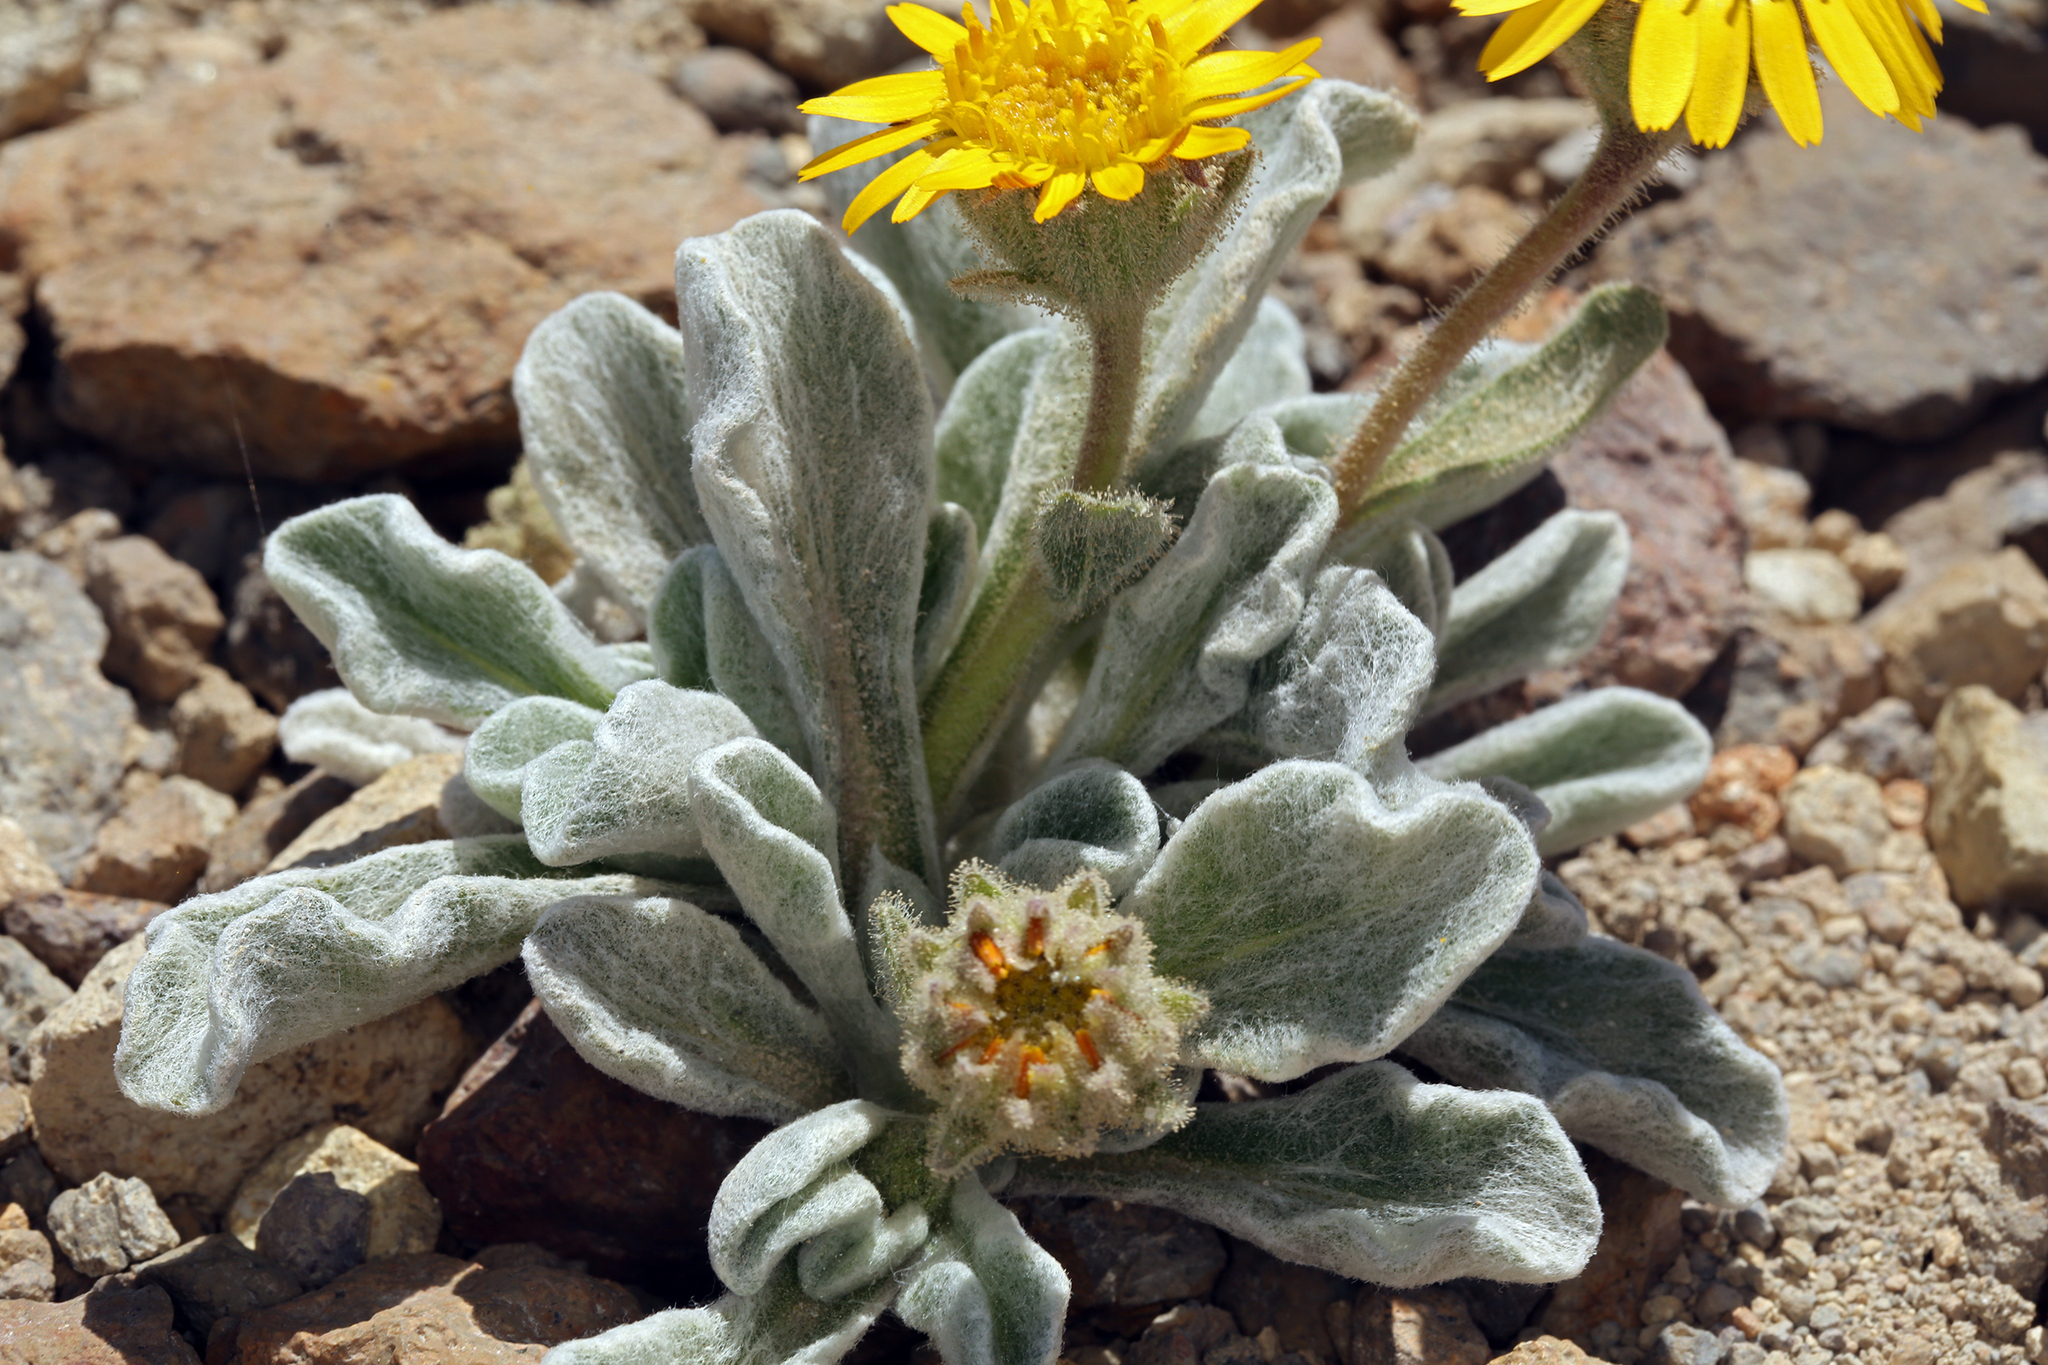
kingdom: Plantae
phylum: Tracheophyta
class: Magnoliopsida
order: Asterales
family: Asteraceae
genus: Hulsea
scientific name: Hulsea vestita
